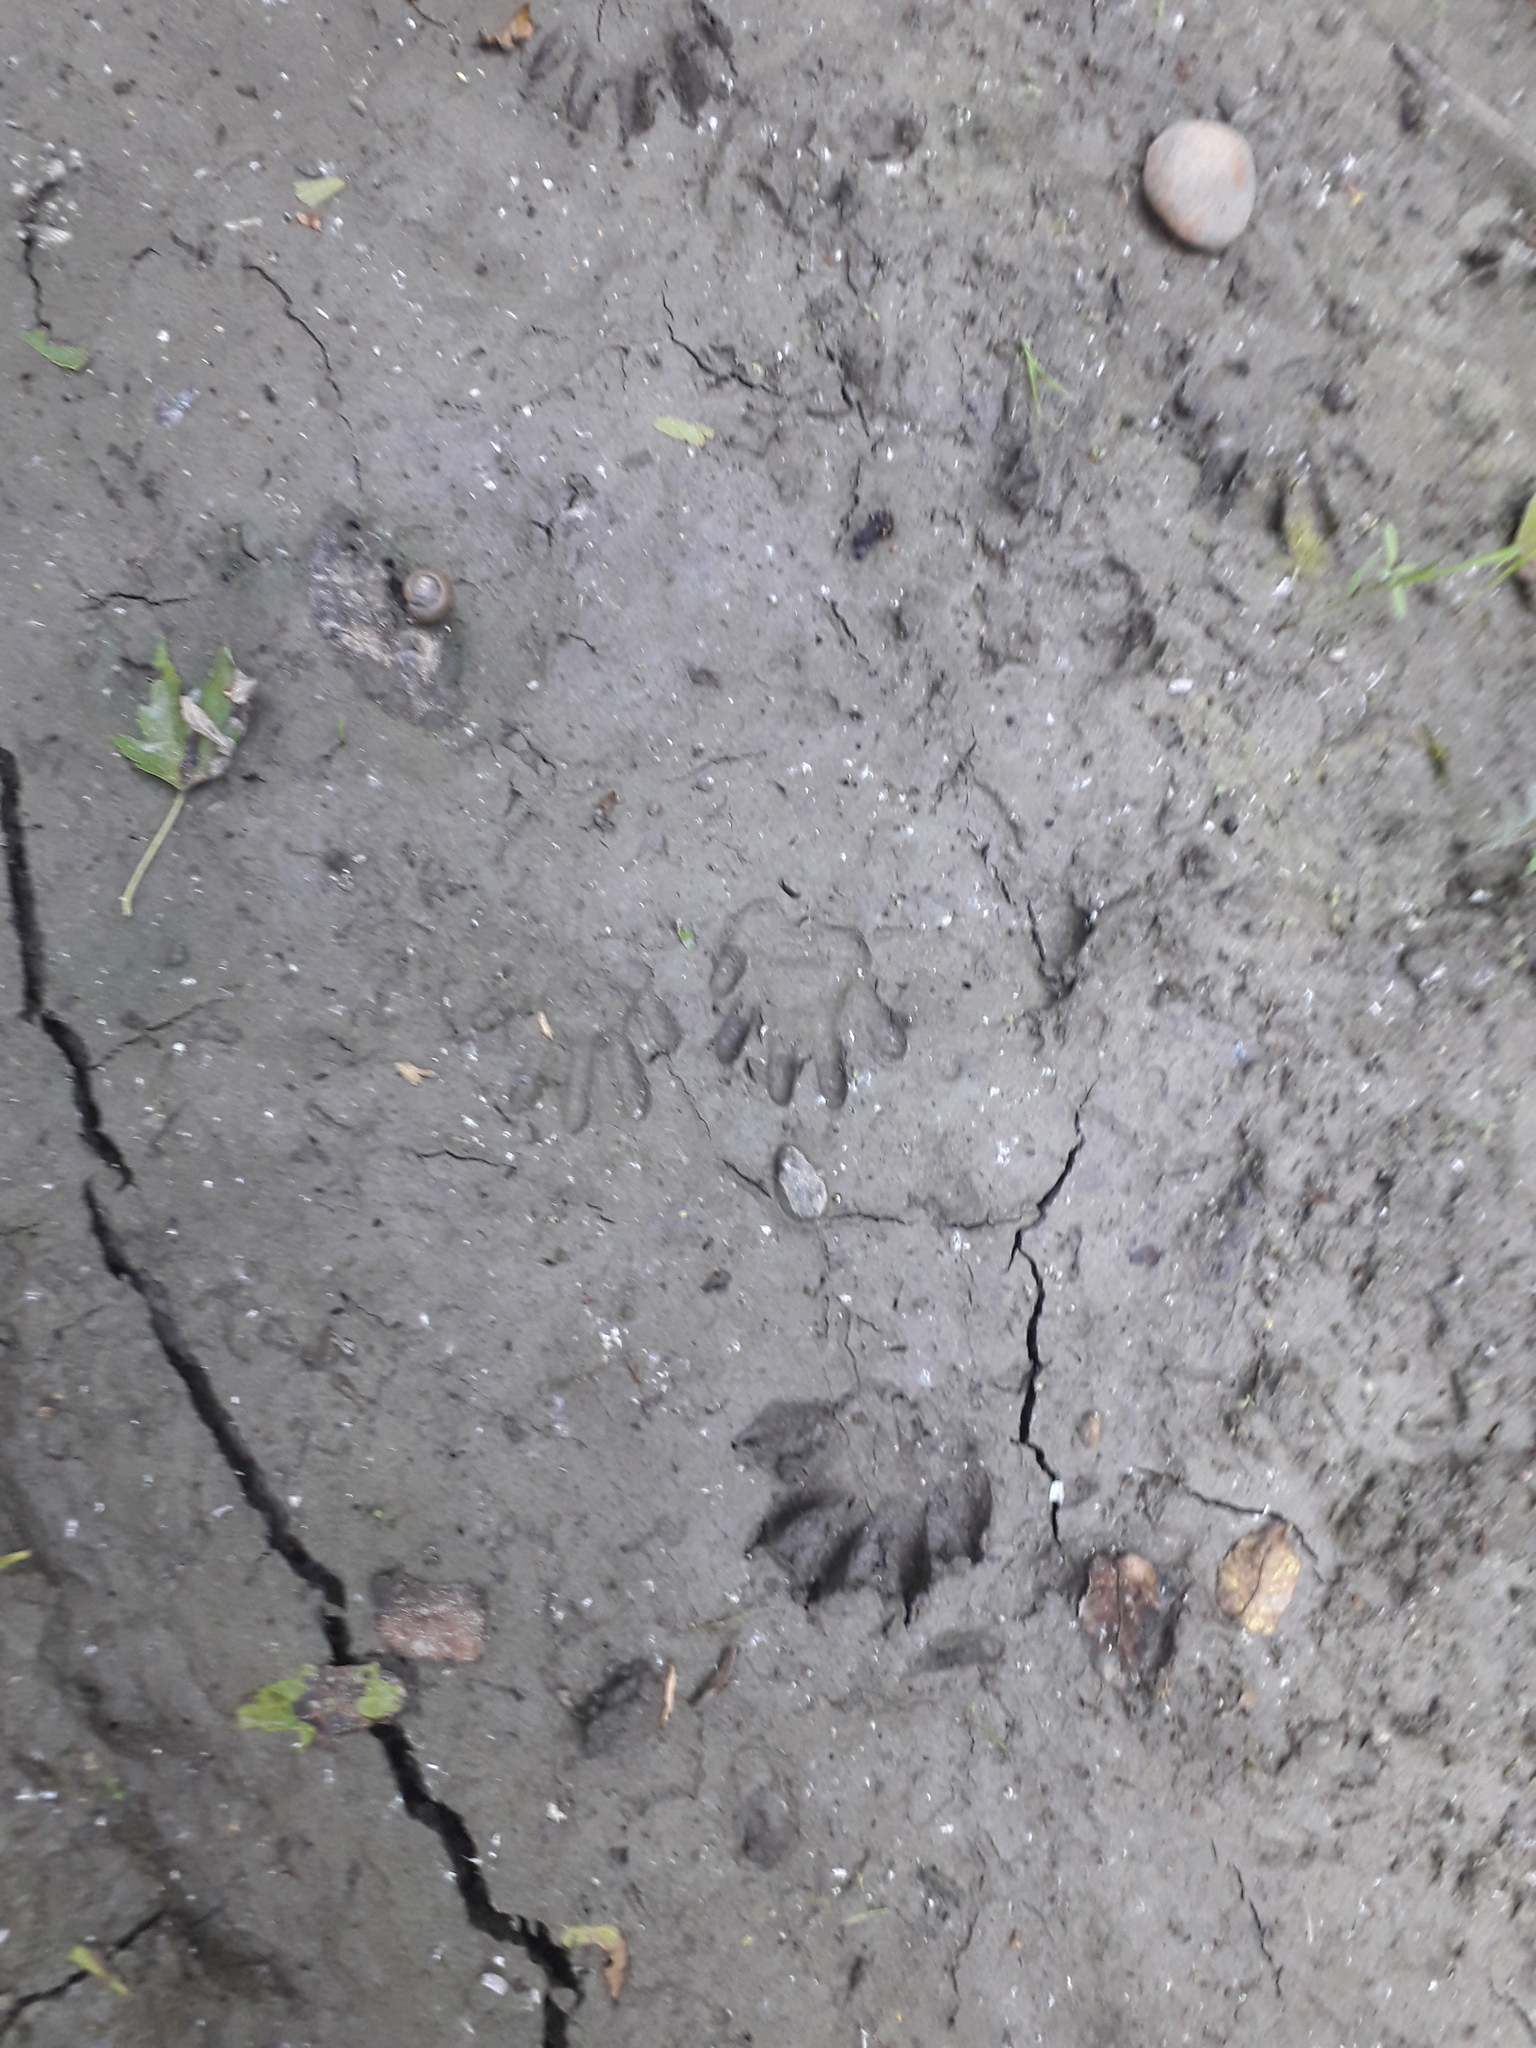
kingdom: Animalia
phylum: Chordata
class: Mammalia
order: Carnivora
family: Procyonidae
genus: Procyon
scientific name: Procyon lotor
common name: Raccoon
